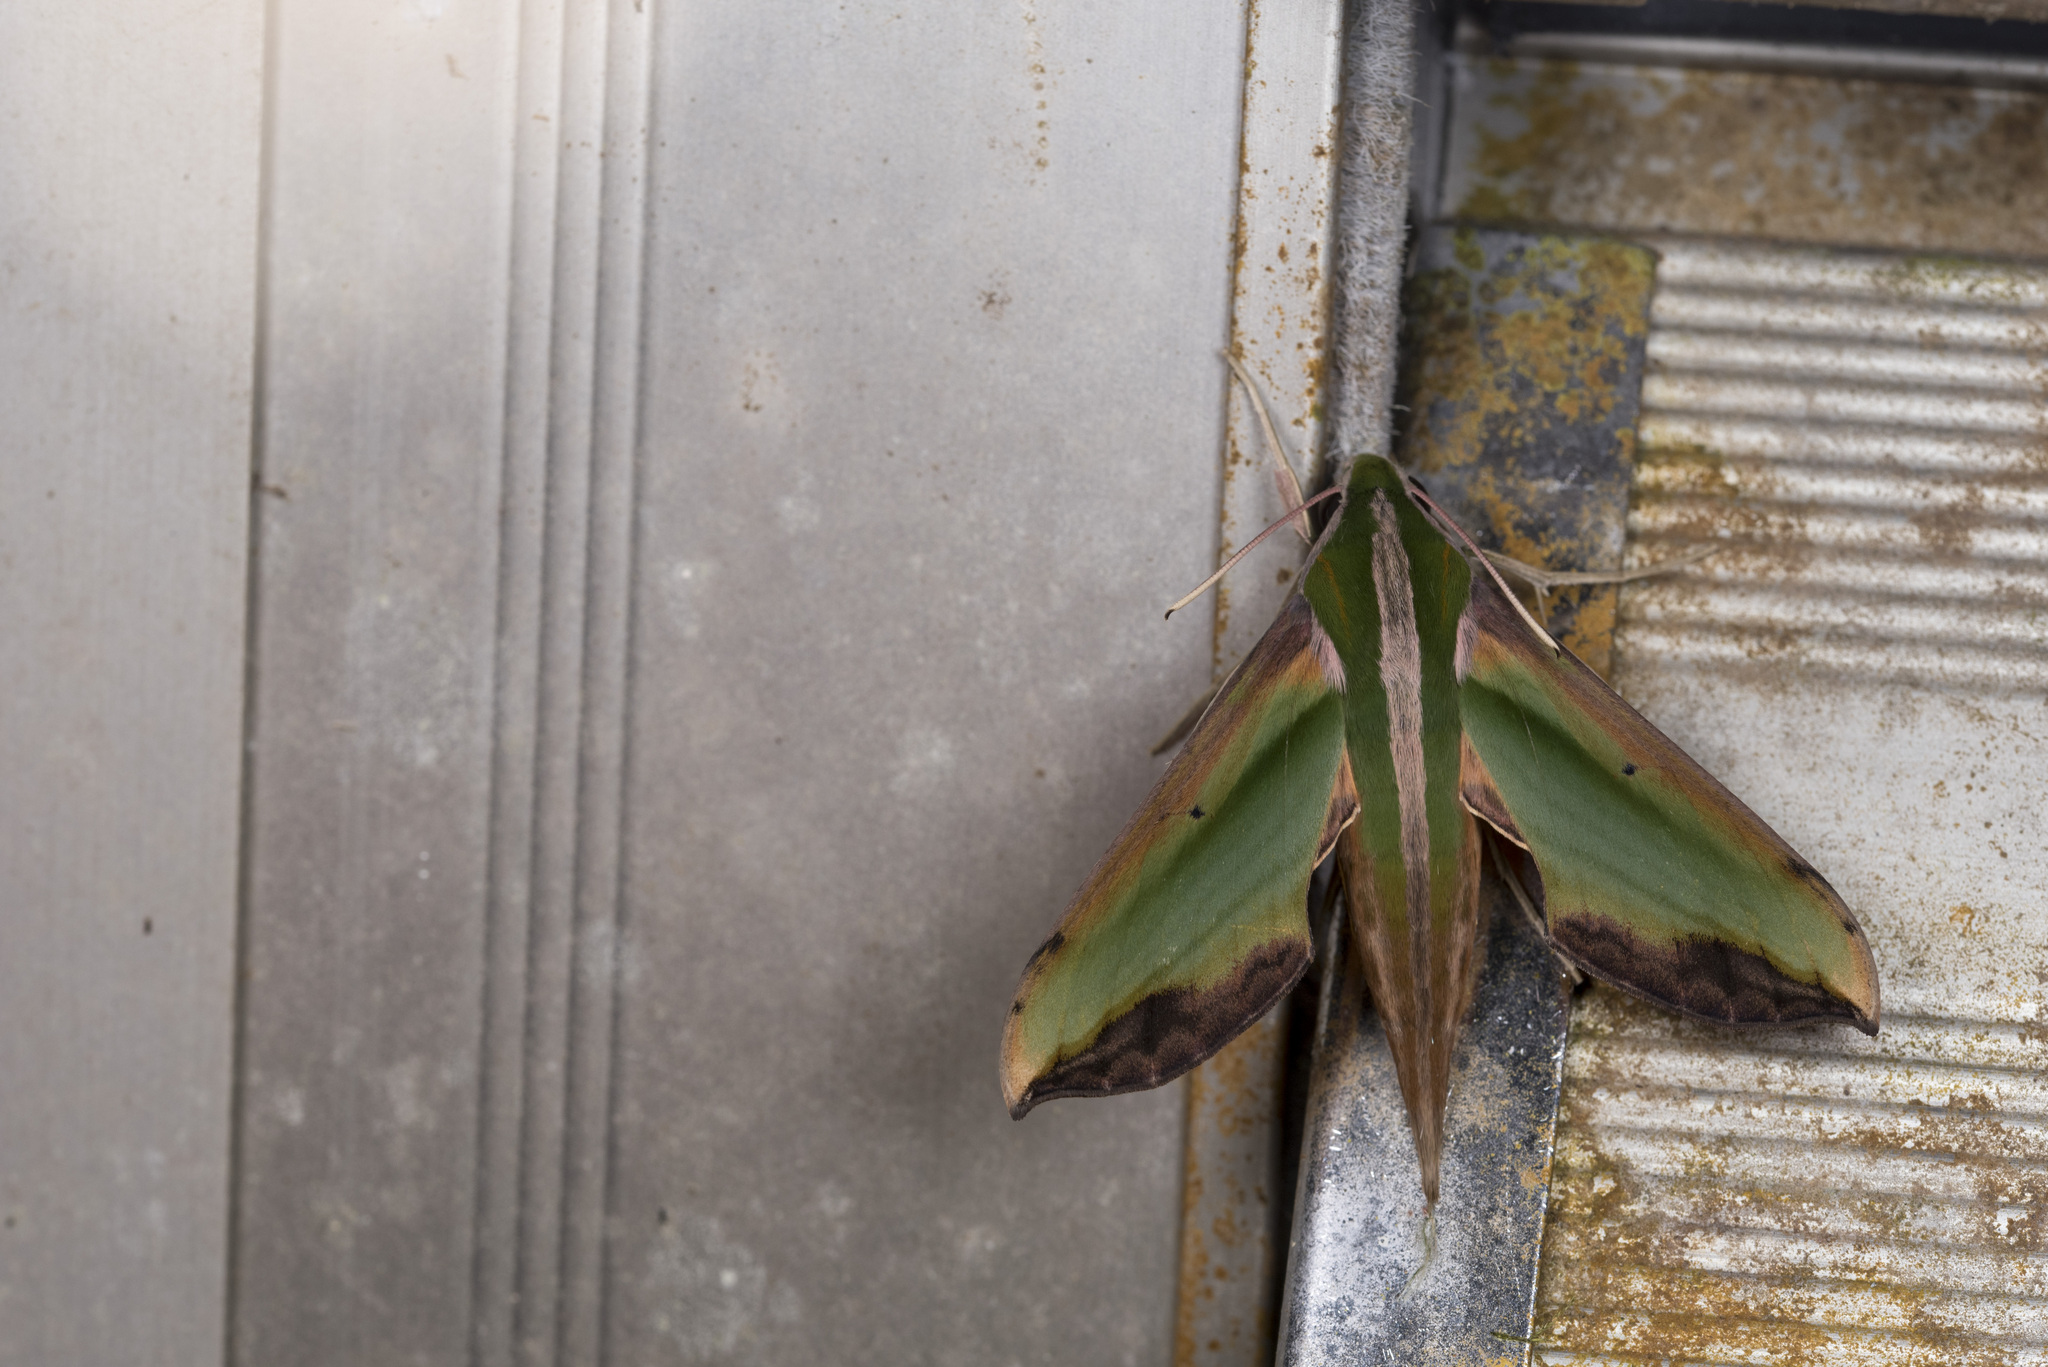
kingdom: Animalia
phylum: Arthropoda
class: Insecta
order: Lepidoptera
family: Sphingidae
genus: Pergesa
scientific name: Pergesa acteus
